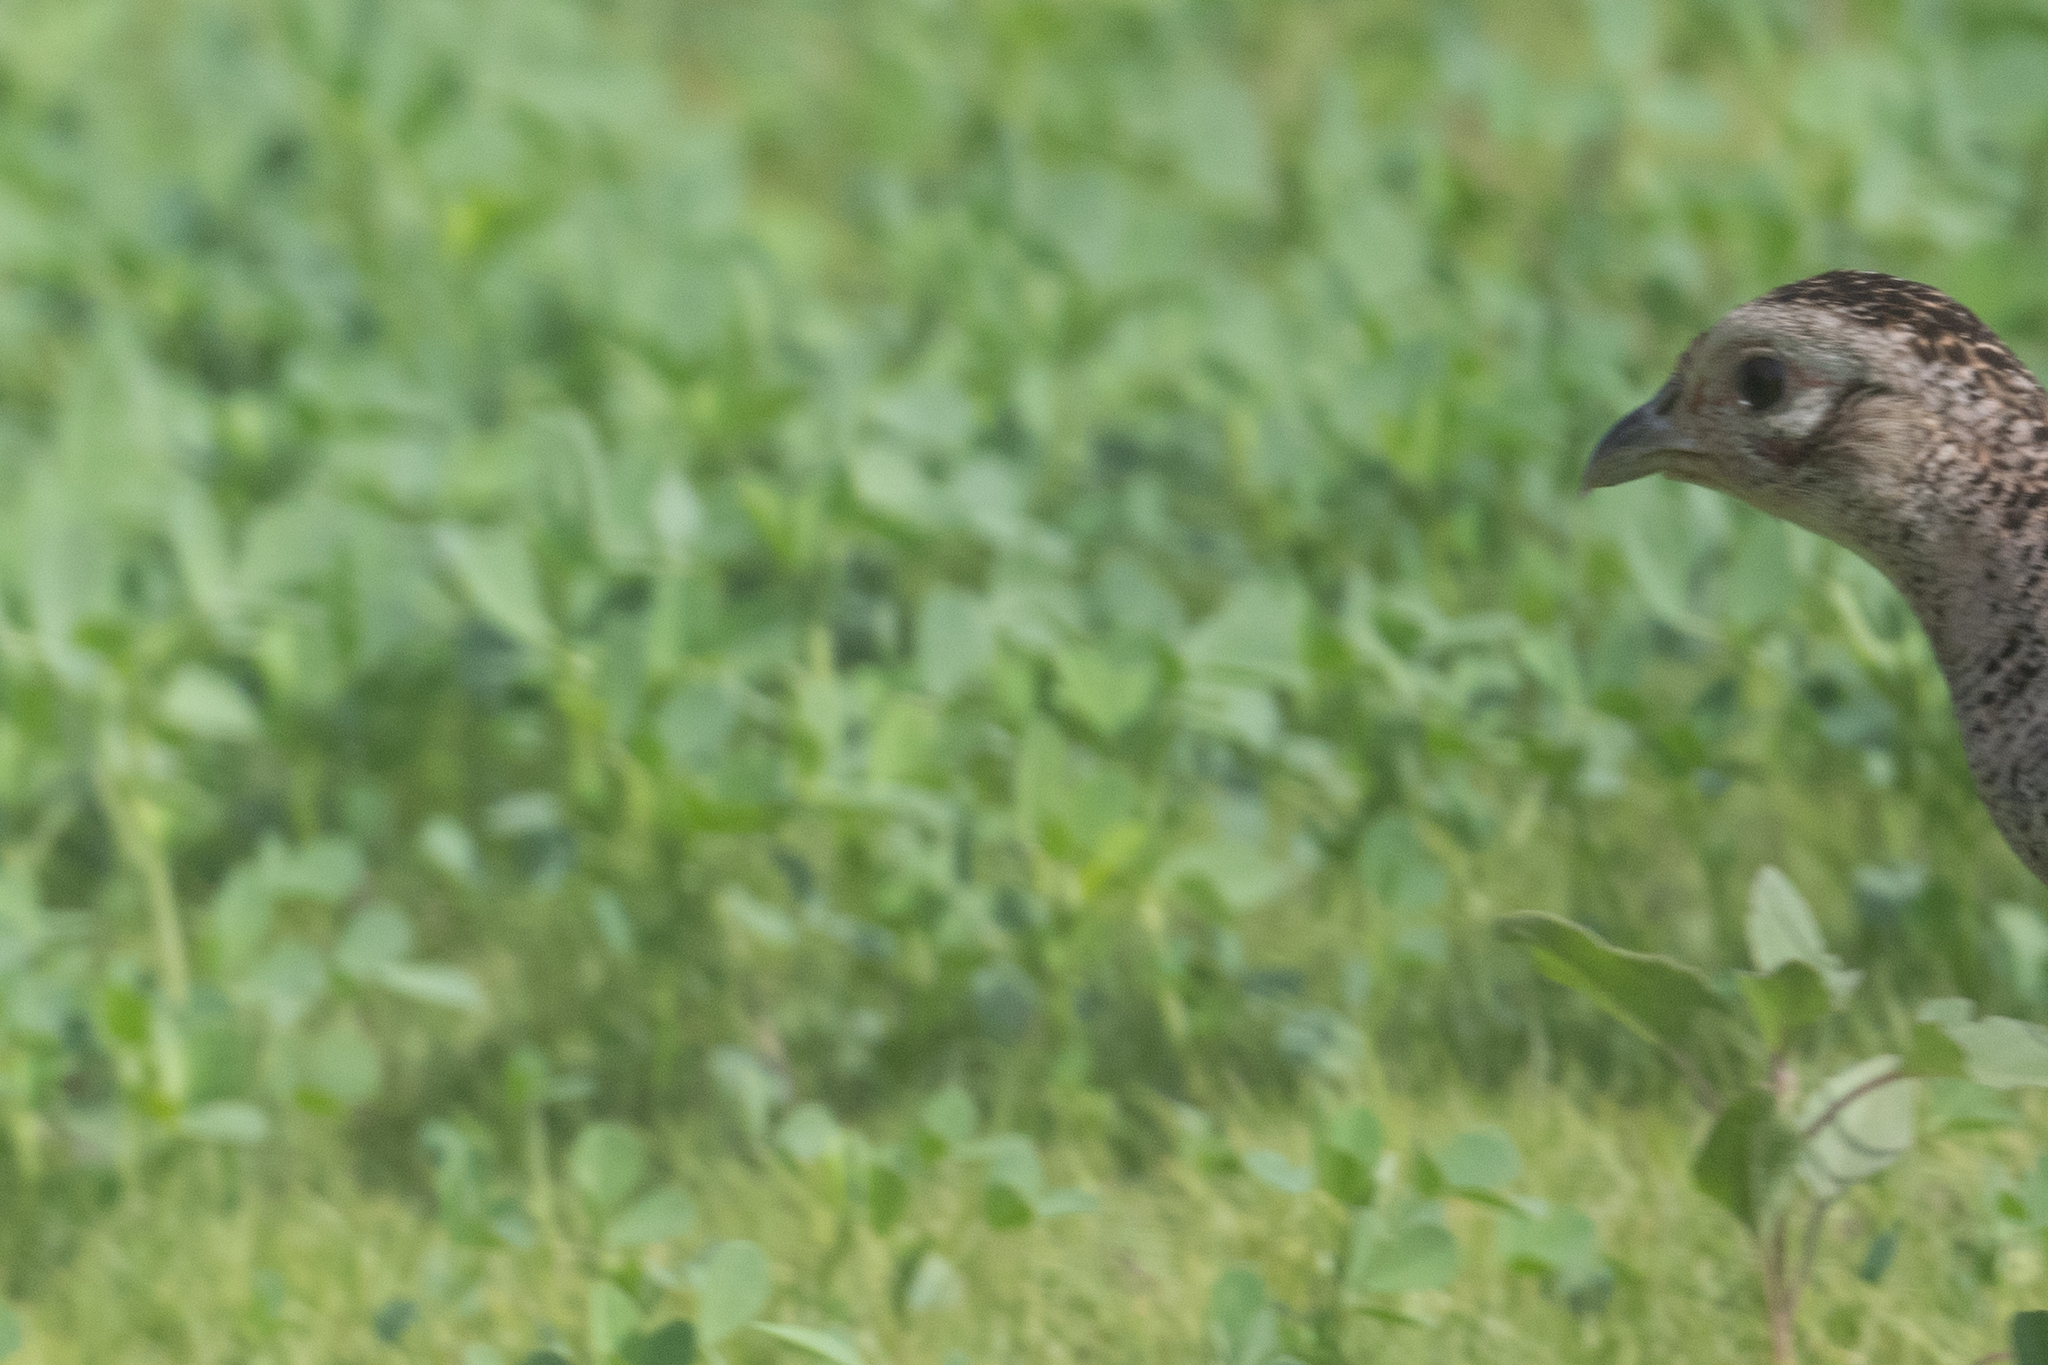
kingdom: Animalia
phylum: Chordata
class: Aves
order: Galliformes
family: Phasianidae
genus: Phasianus
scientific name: Phasianus colchicus
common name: Common pheasant
